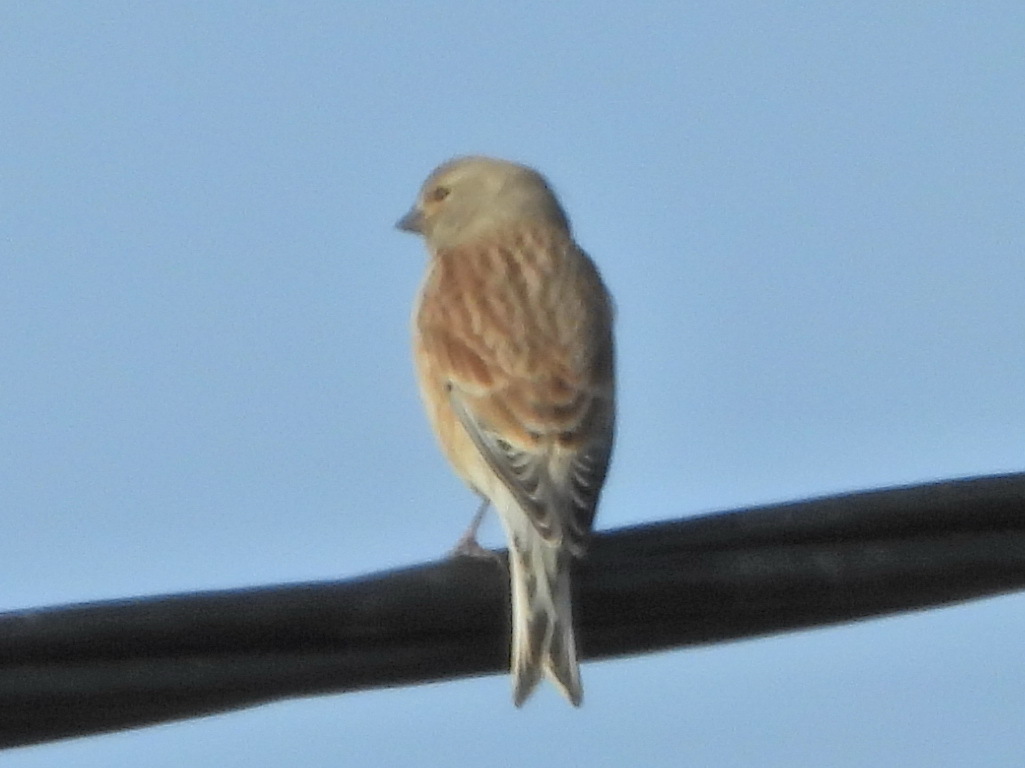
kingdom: Animalia
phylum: Chordata
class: Aves
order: Passeriformes
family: Fringillidae
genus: Linaria
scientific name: Linaria cannabina
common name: Common linnet
